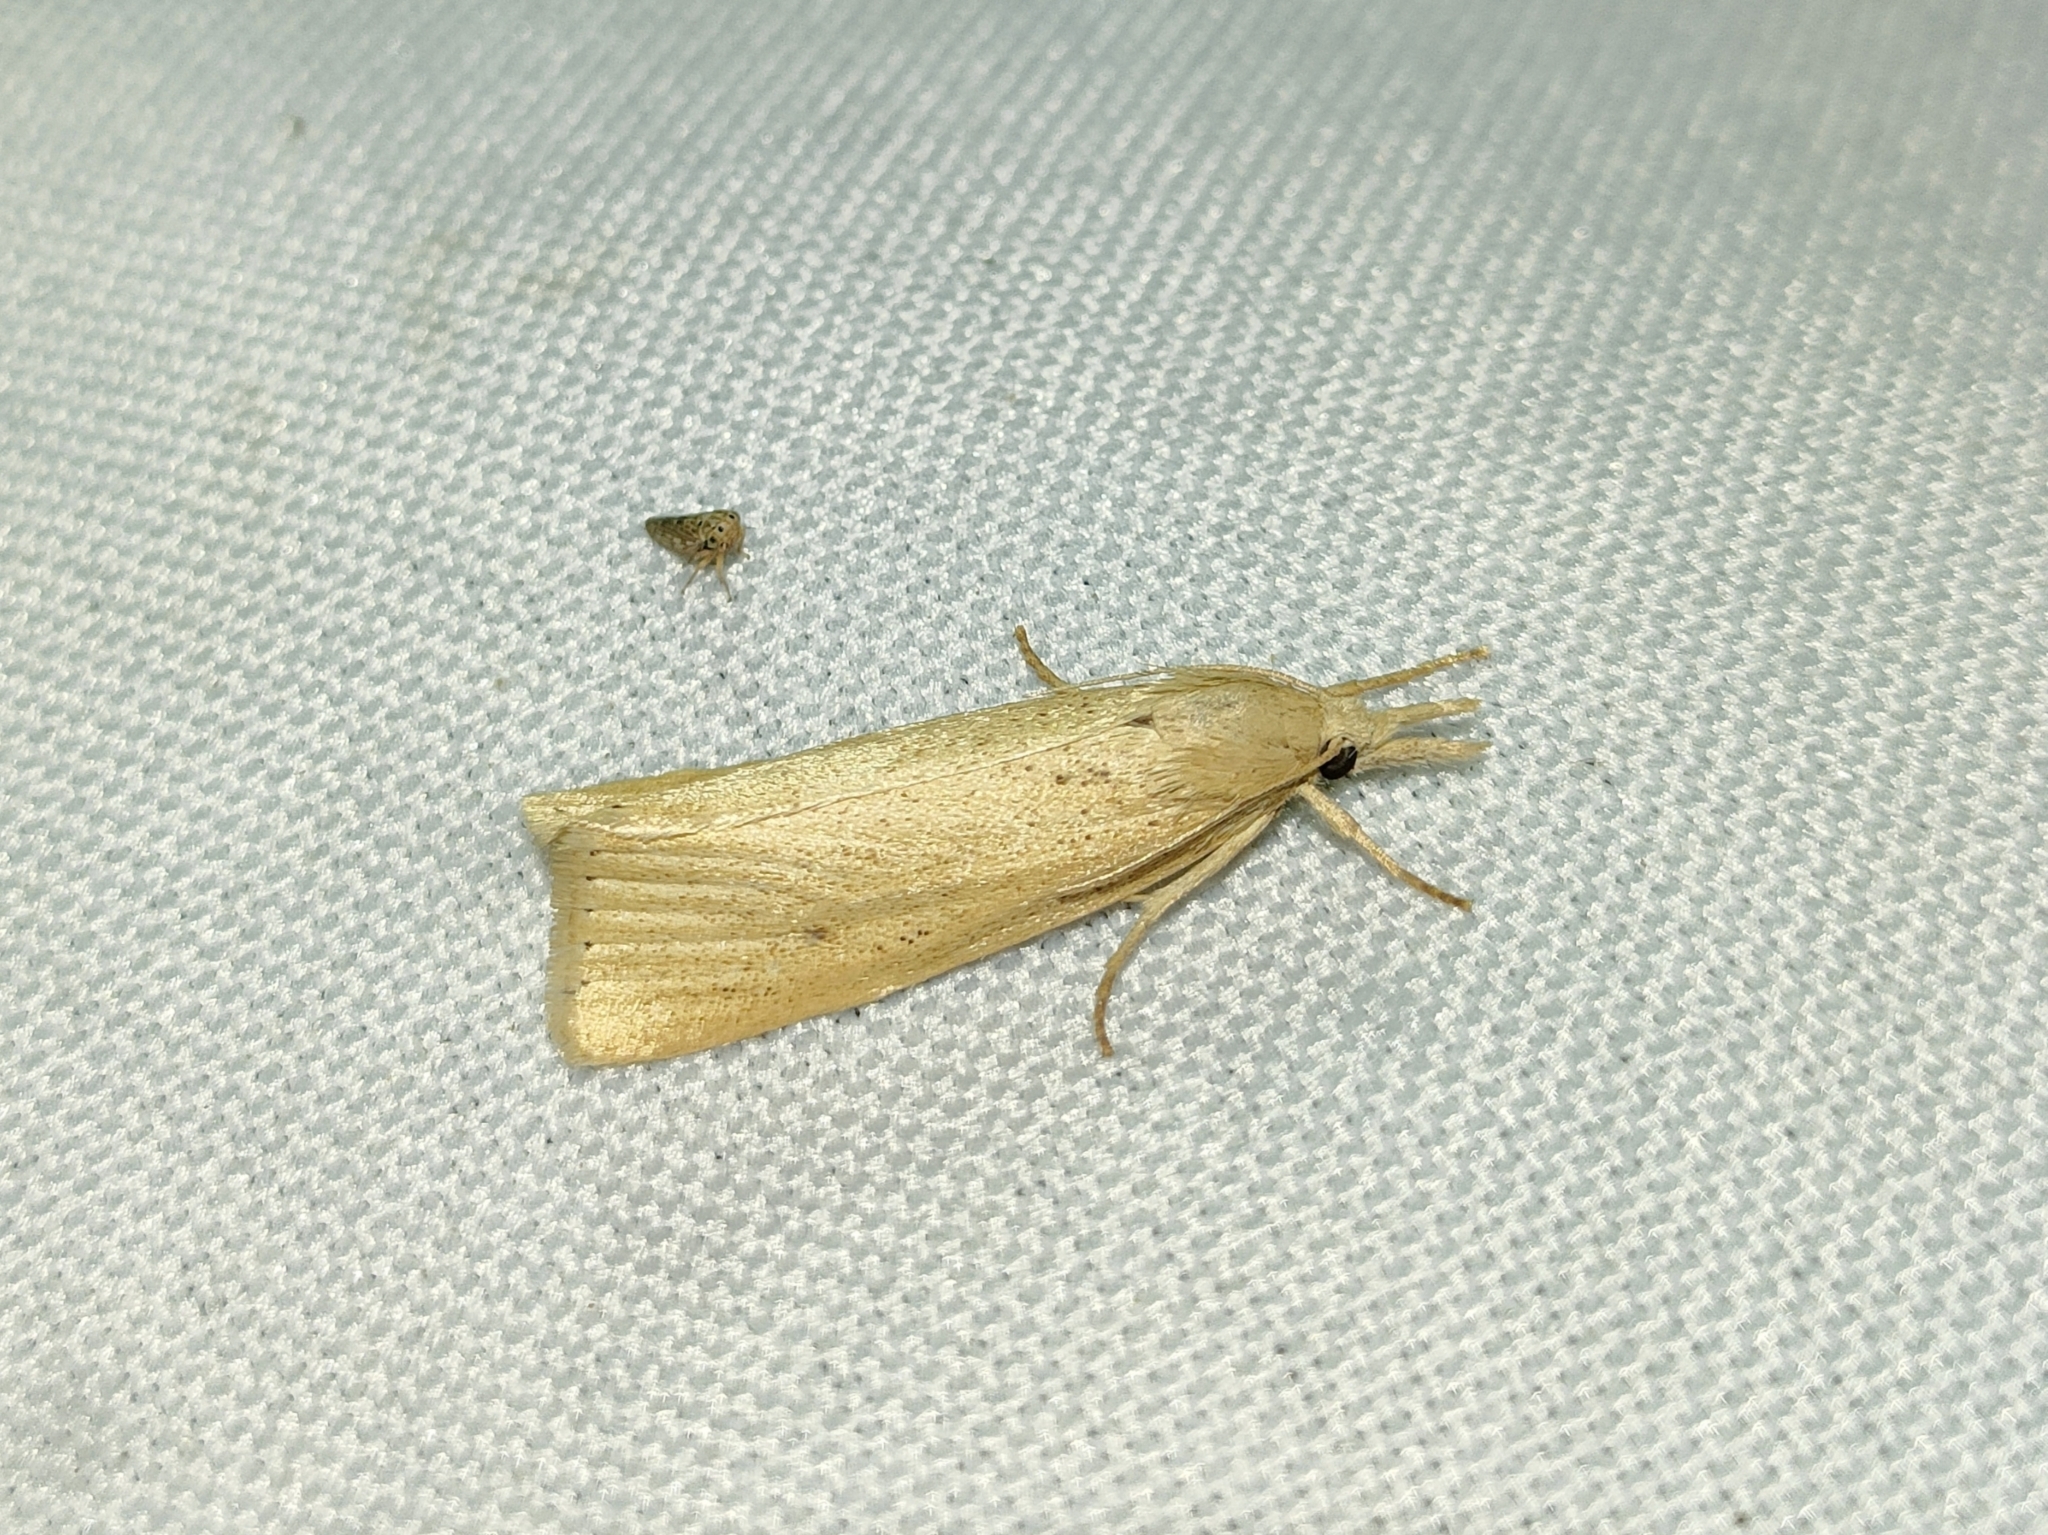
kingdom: Animalia
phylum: Arthropoda
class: Insecta
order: Lepidoptera
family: Crambidae
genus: Chilo
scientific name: Chilo luteellus
